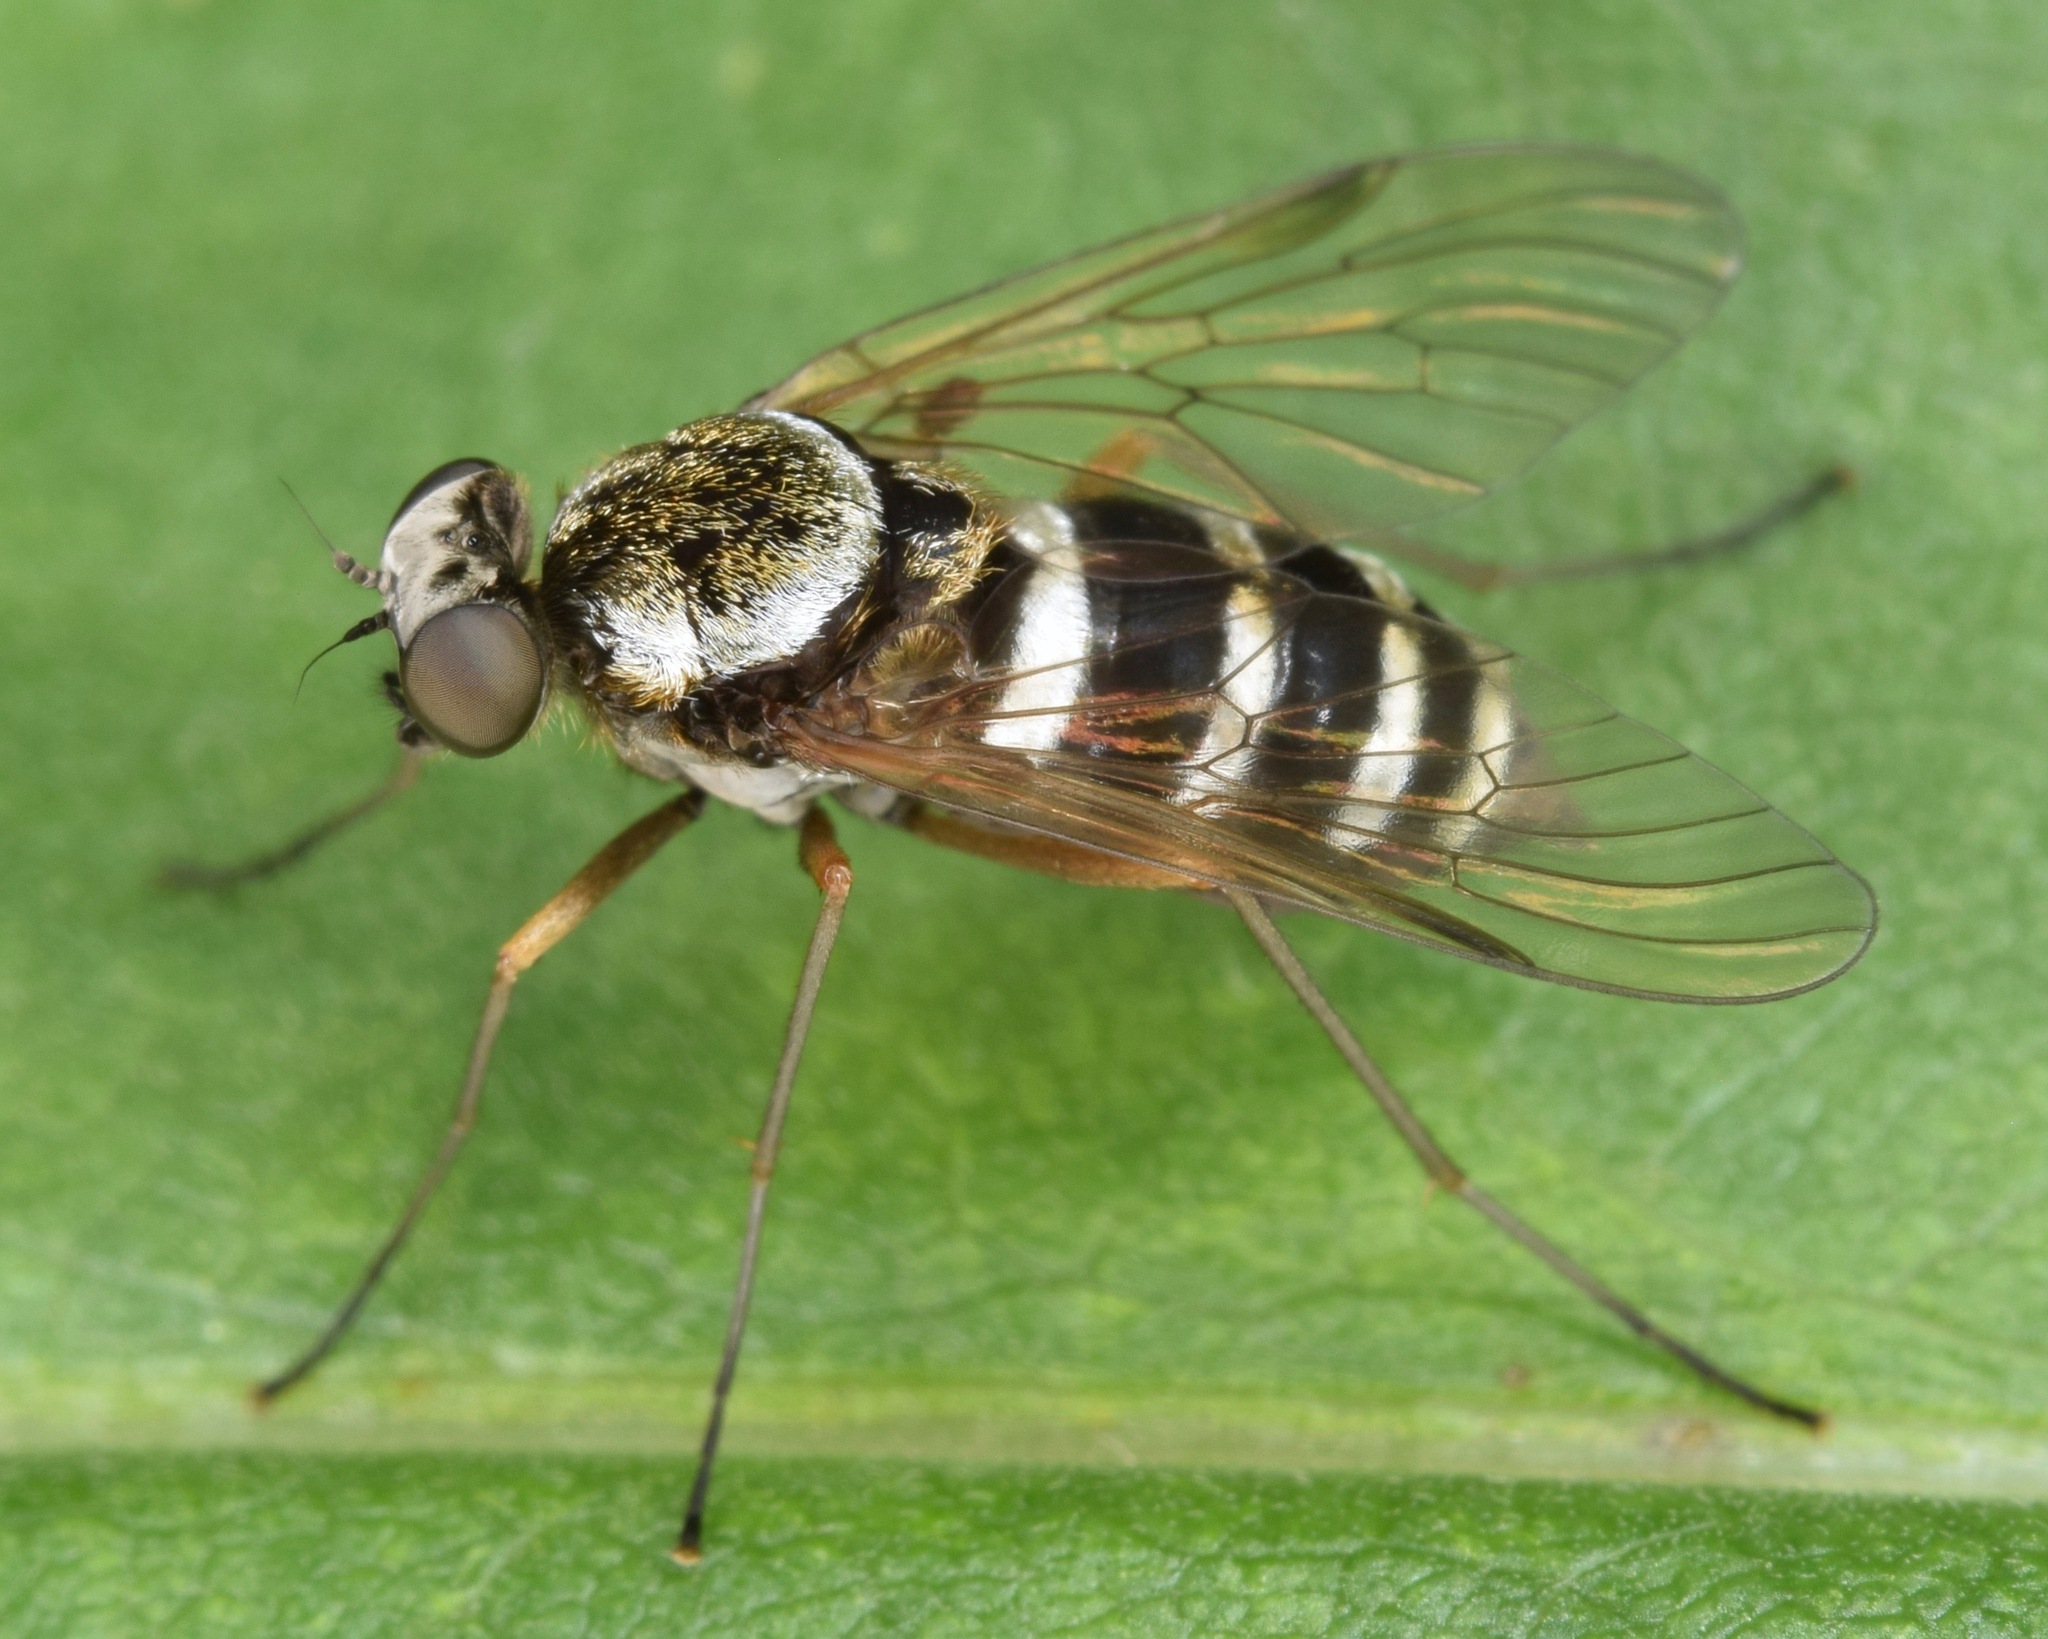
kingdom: Animalia
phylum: Arthropoda
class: Insecta
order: Diptera
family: Rhagionidae
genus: Chrysopilus
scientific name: Chrysopilus fasciatus
